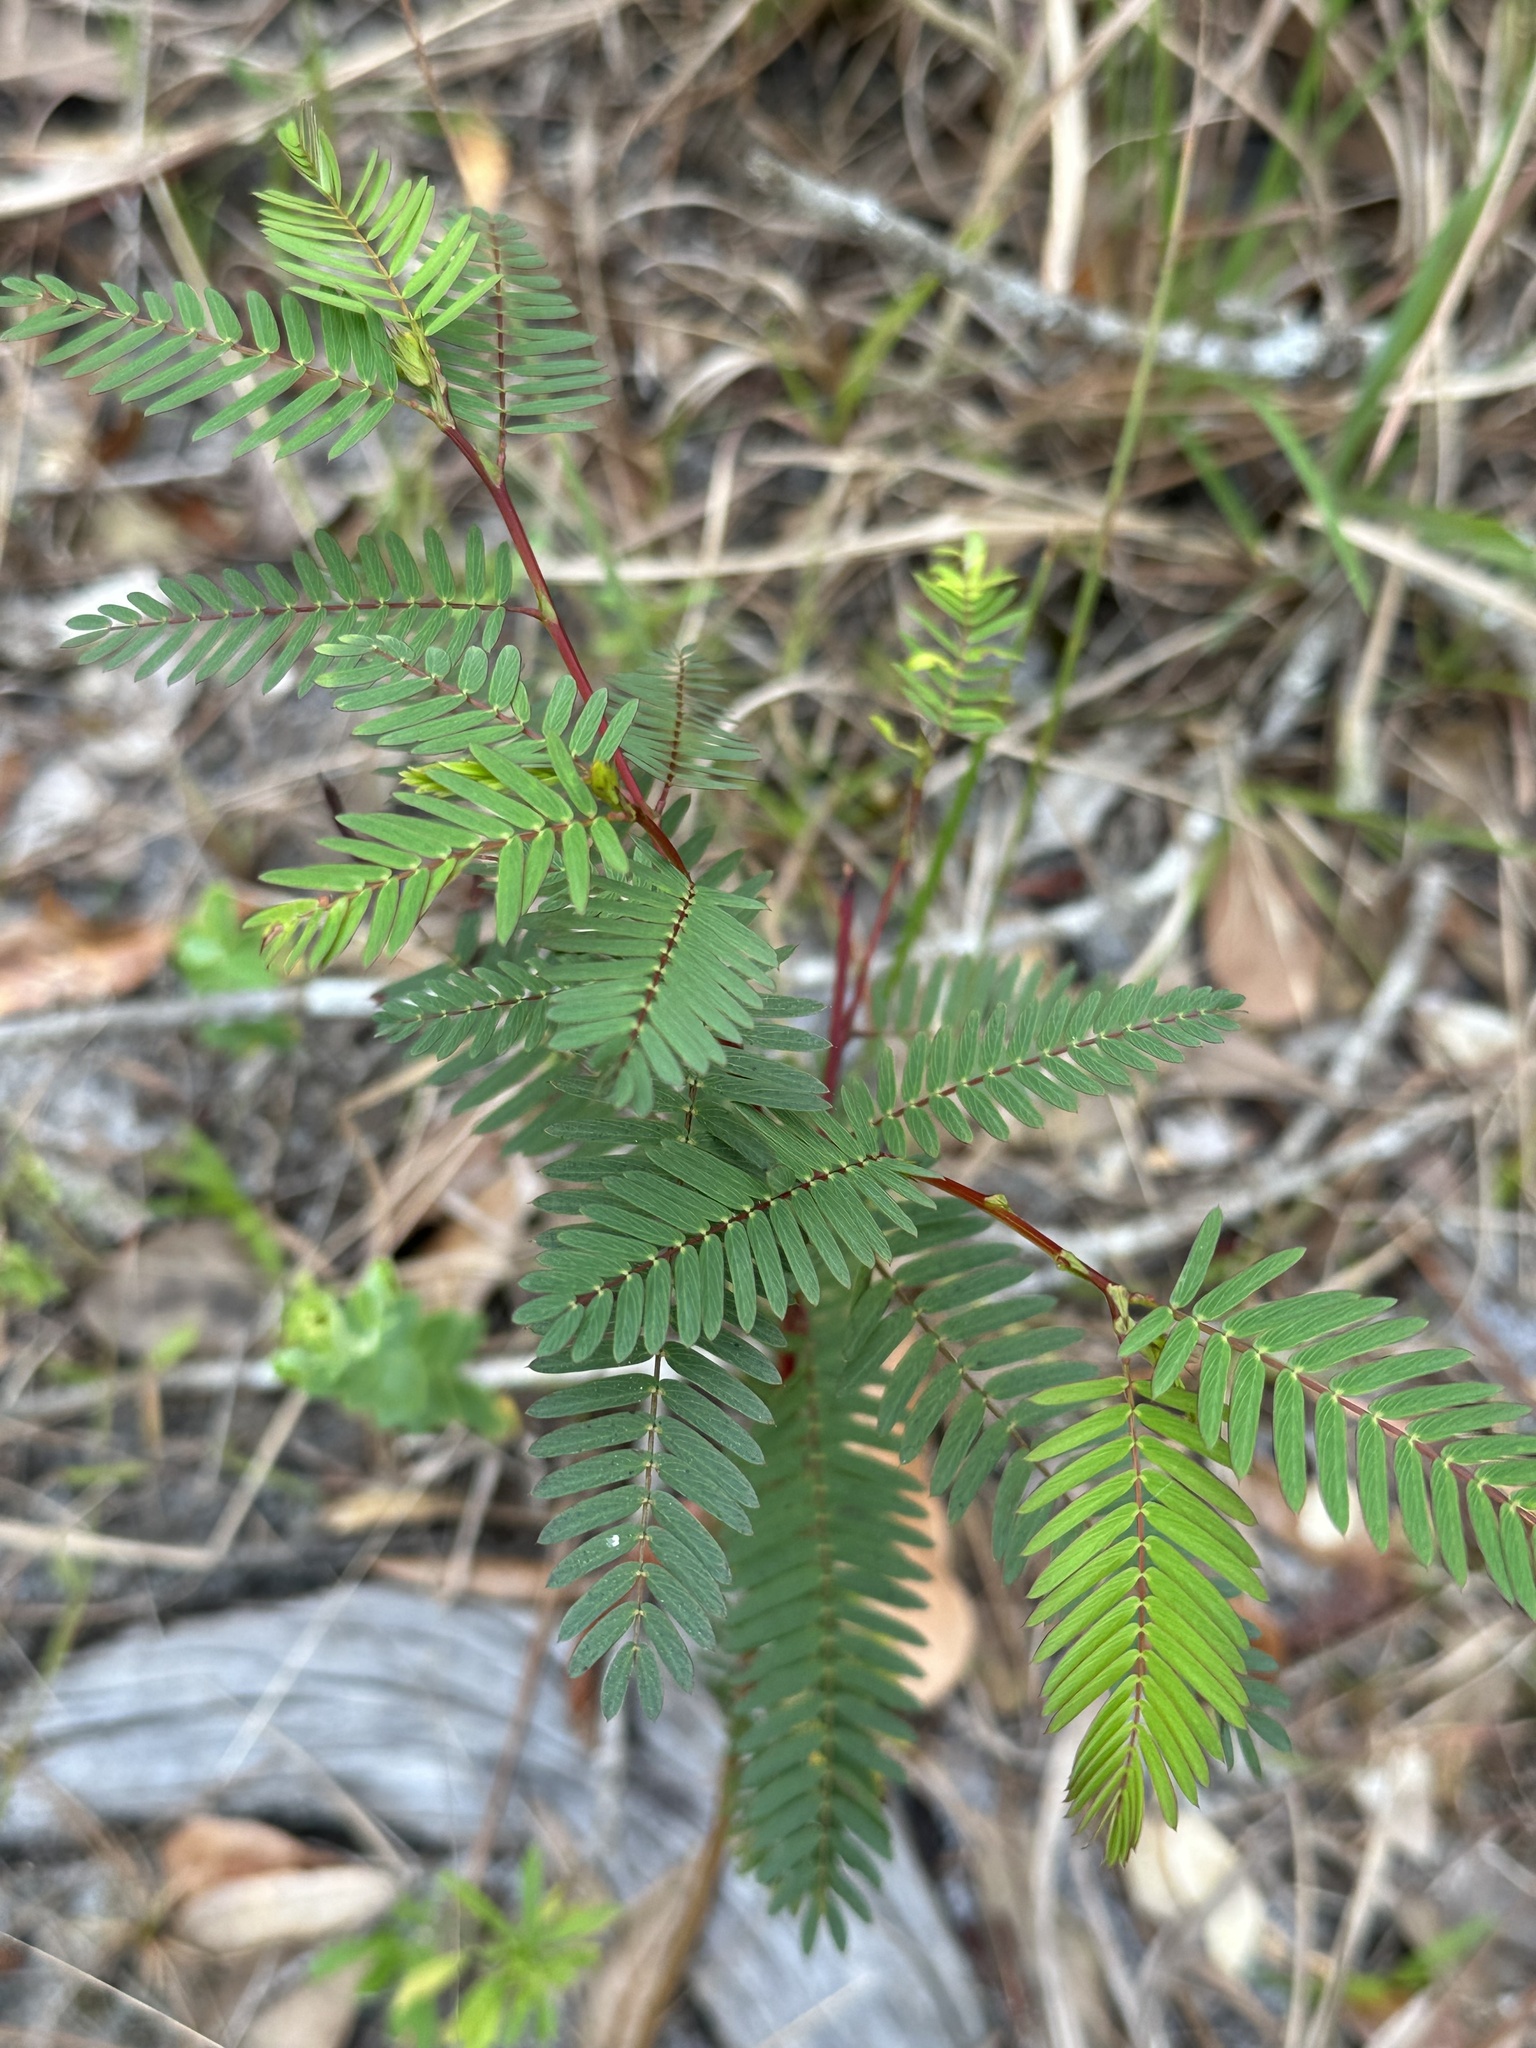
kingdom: Plantae
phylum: Tracheophyta
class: Magnoliopsida
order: Fabales
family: Fabaceae
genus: Chamaecrista
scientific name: Chamaecrista fasciculata
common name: Golden cassia
